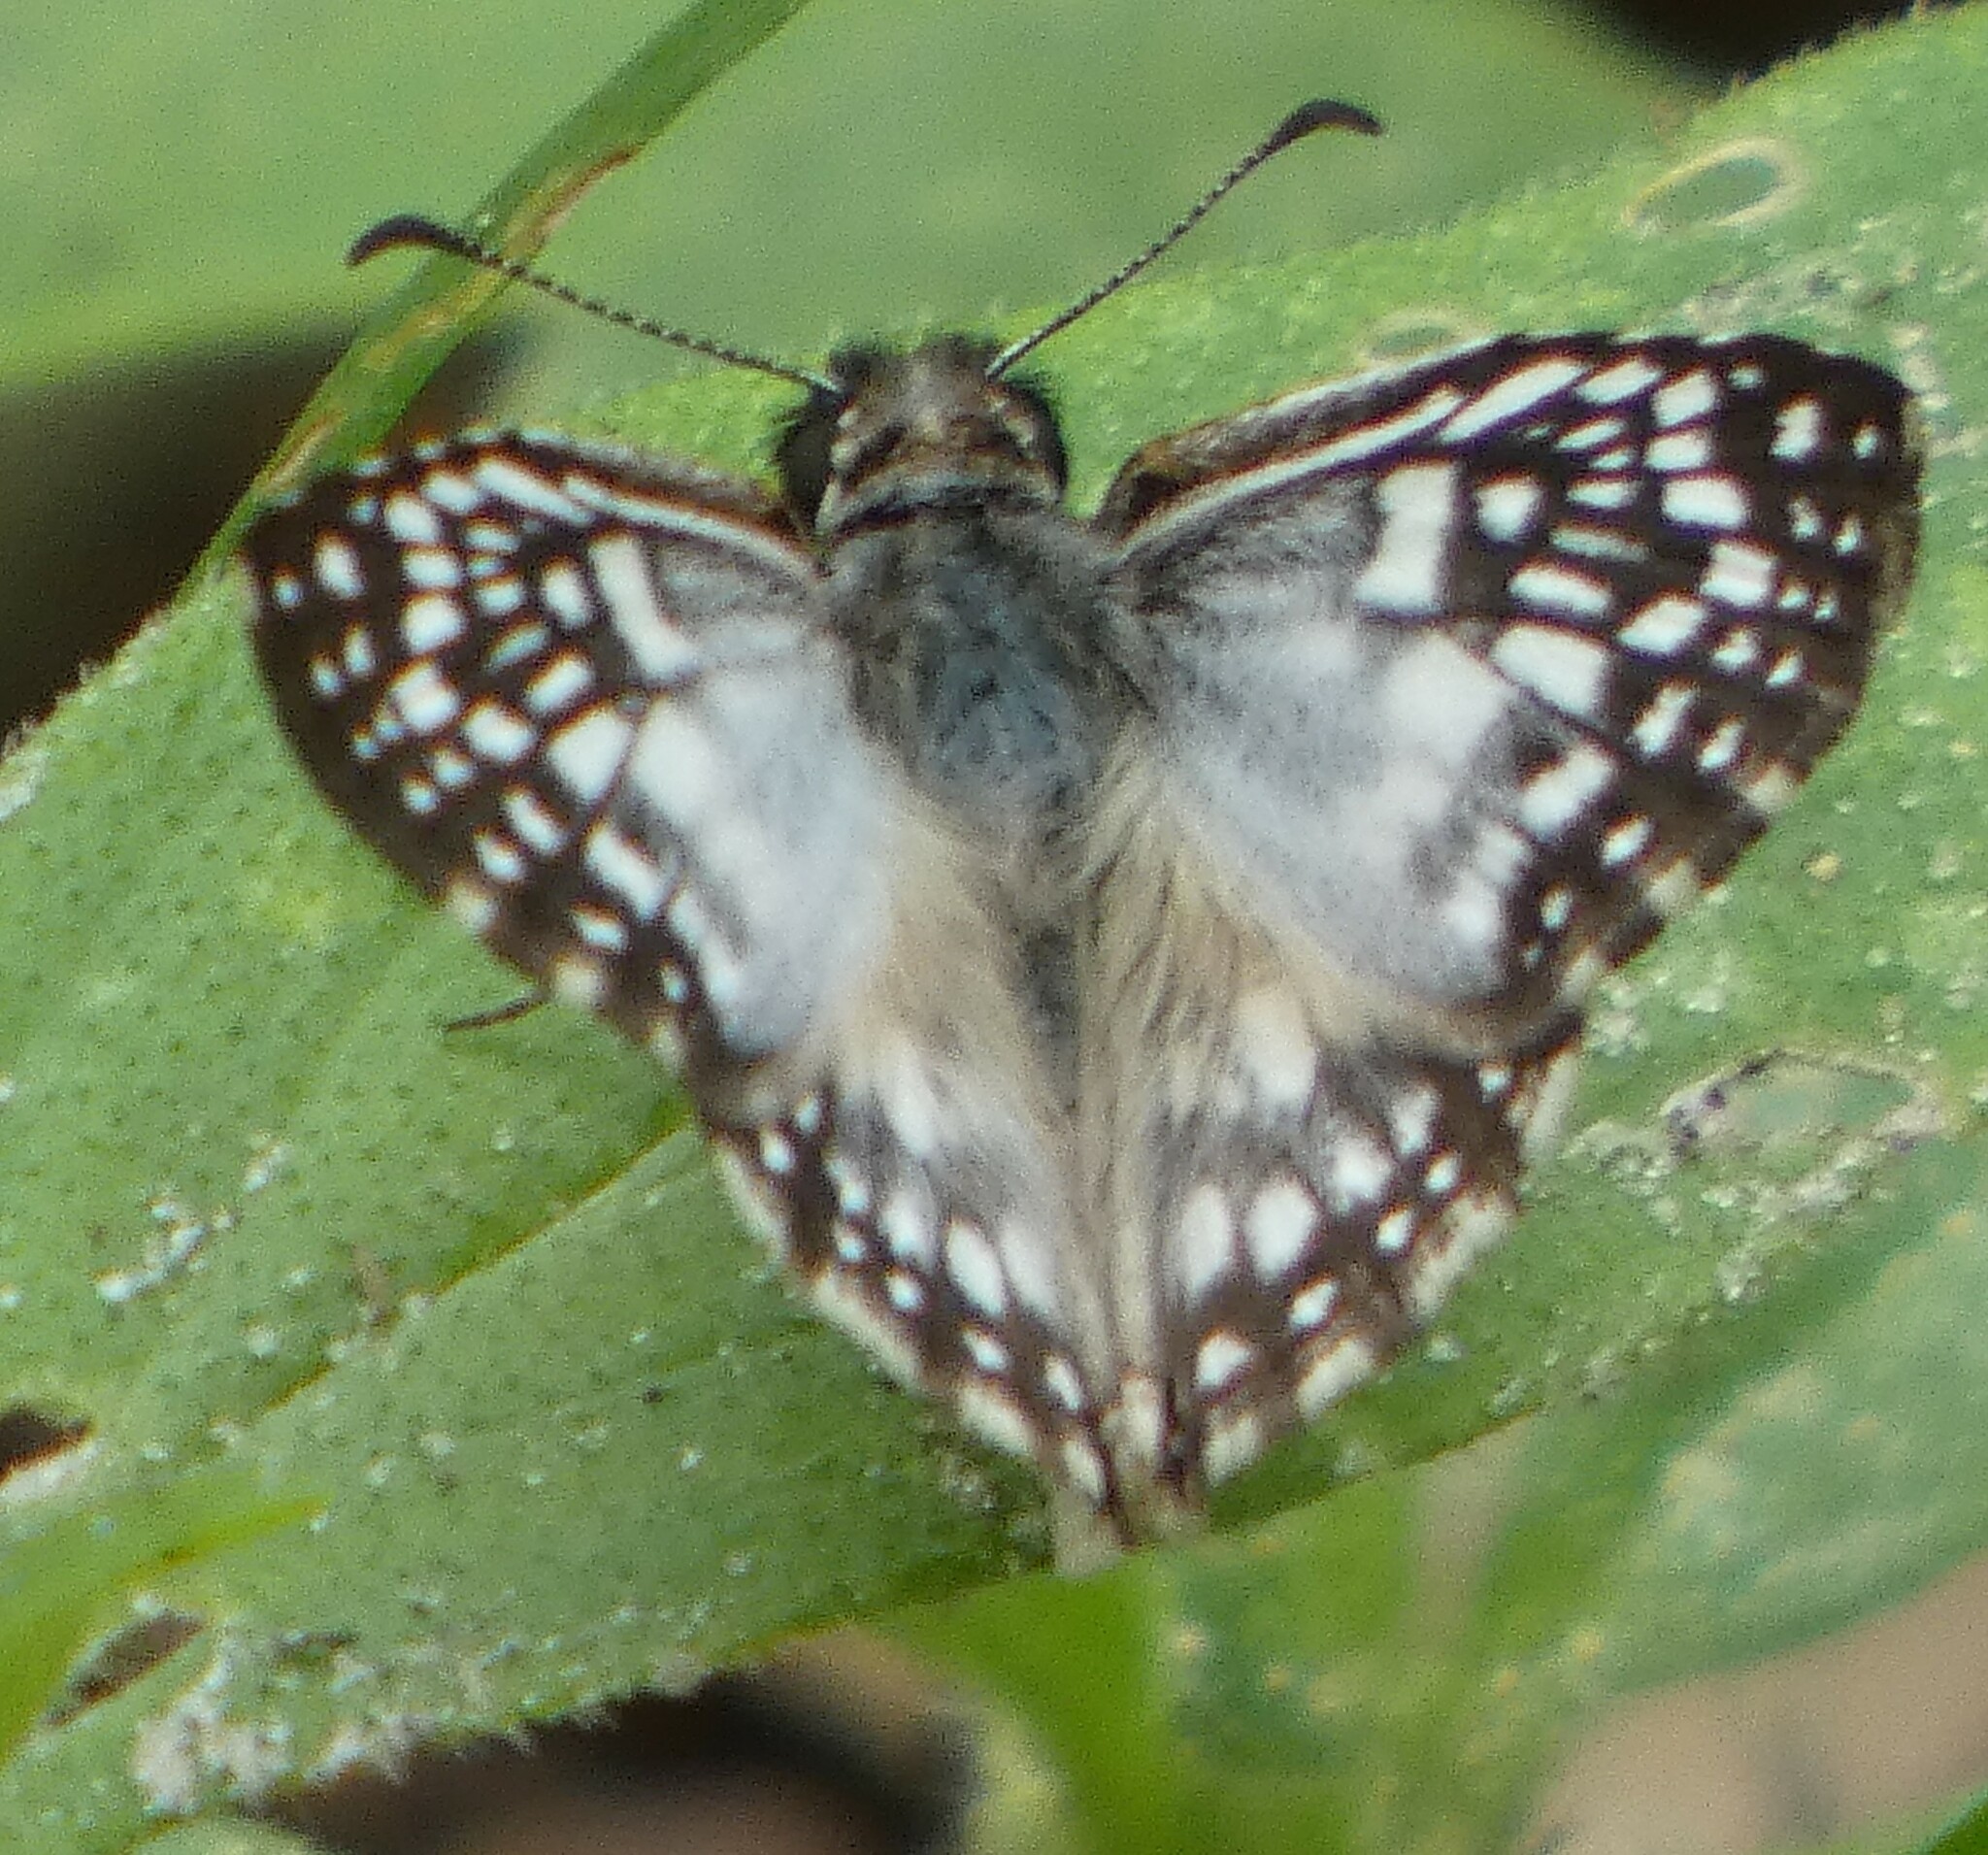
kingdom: Animalia
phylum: Arthropoda
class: Insecta
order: Lepidoptera
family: Hesperiidae
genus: Pyrgus
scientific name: Pyrgus oileus
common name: Tropical checkered-skipper
